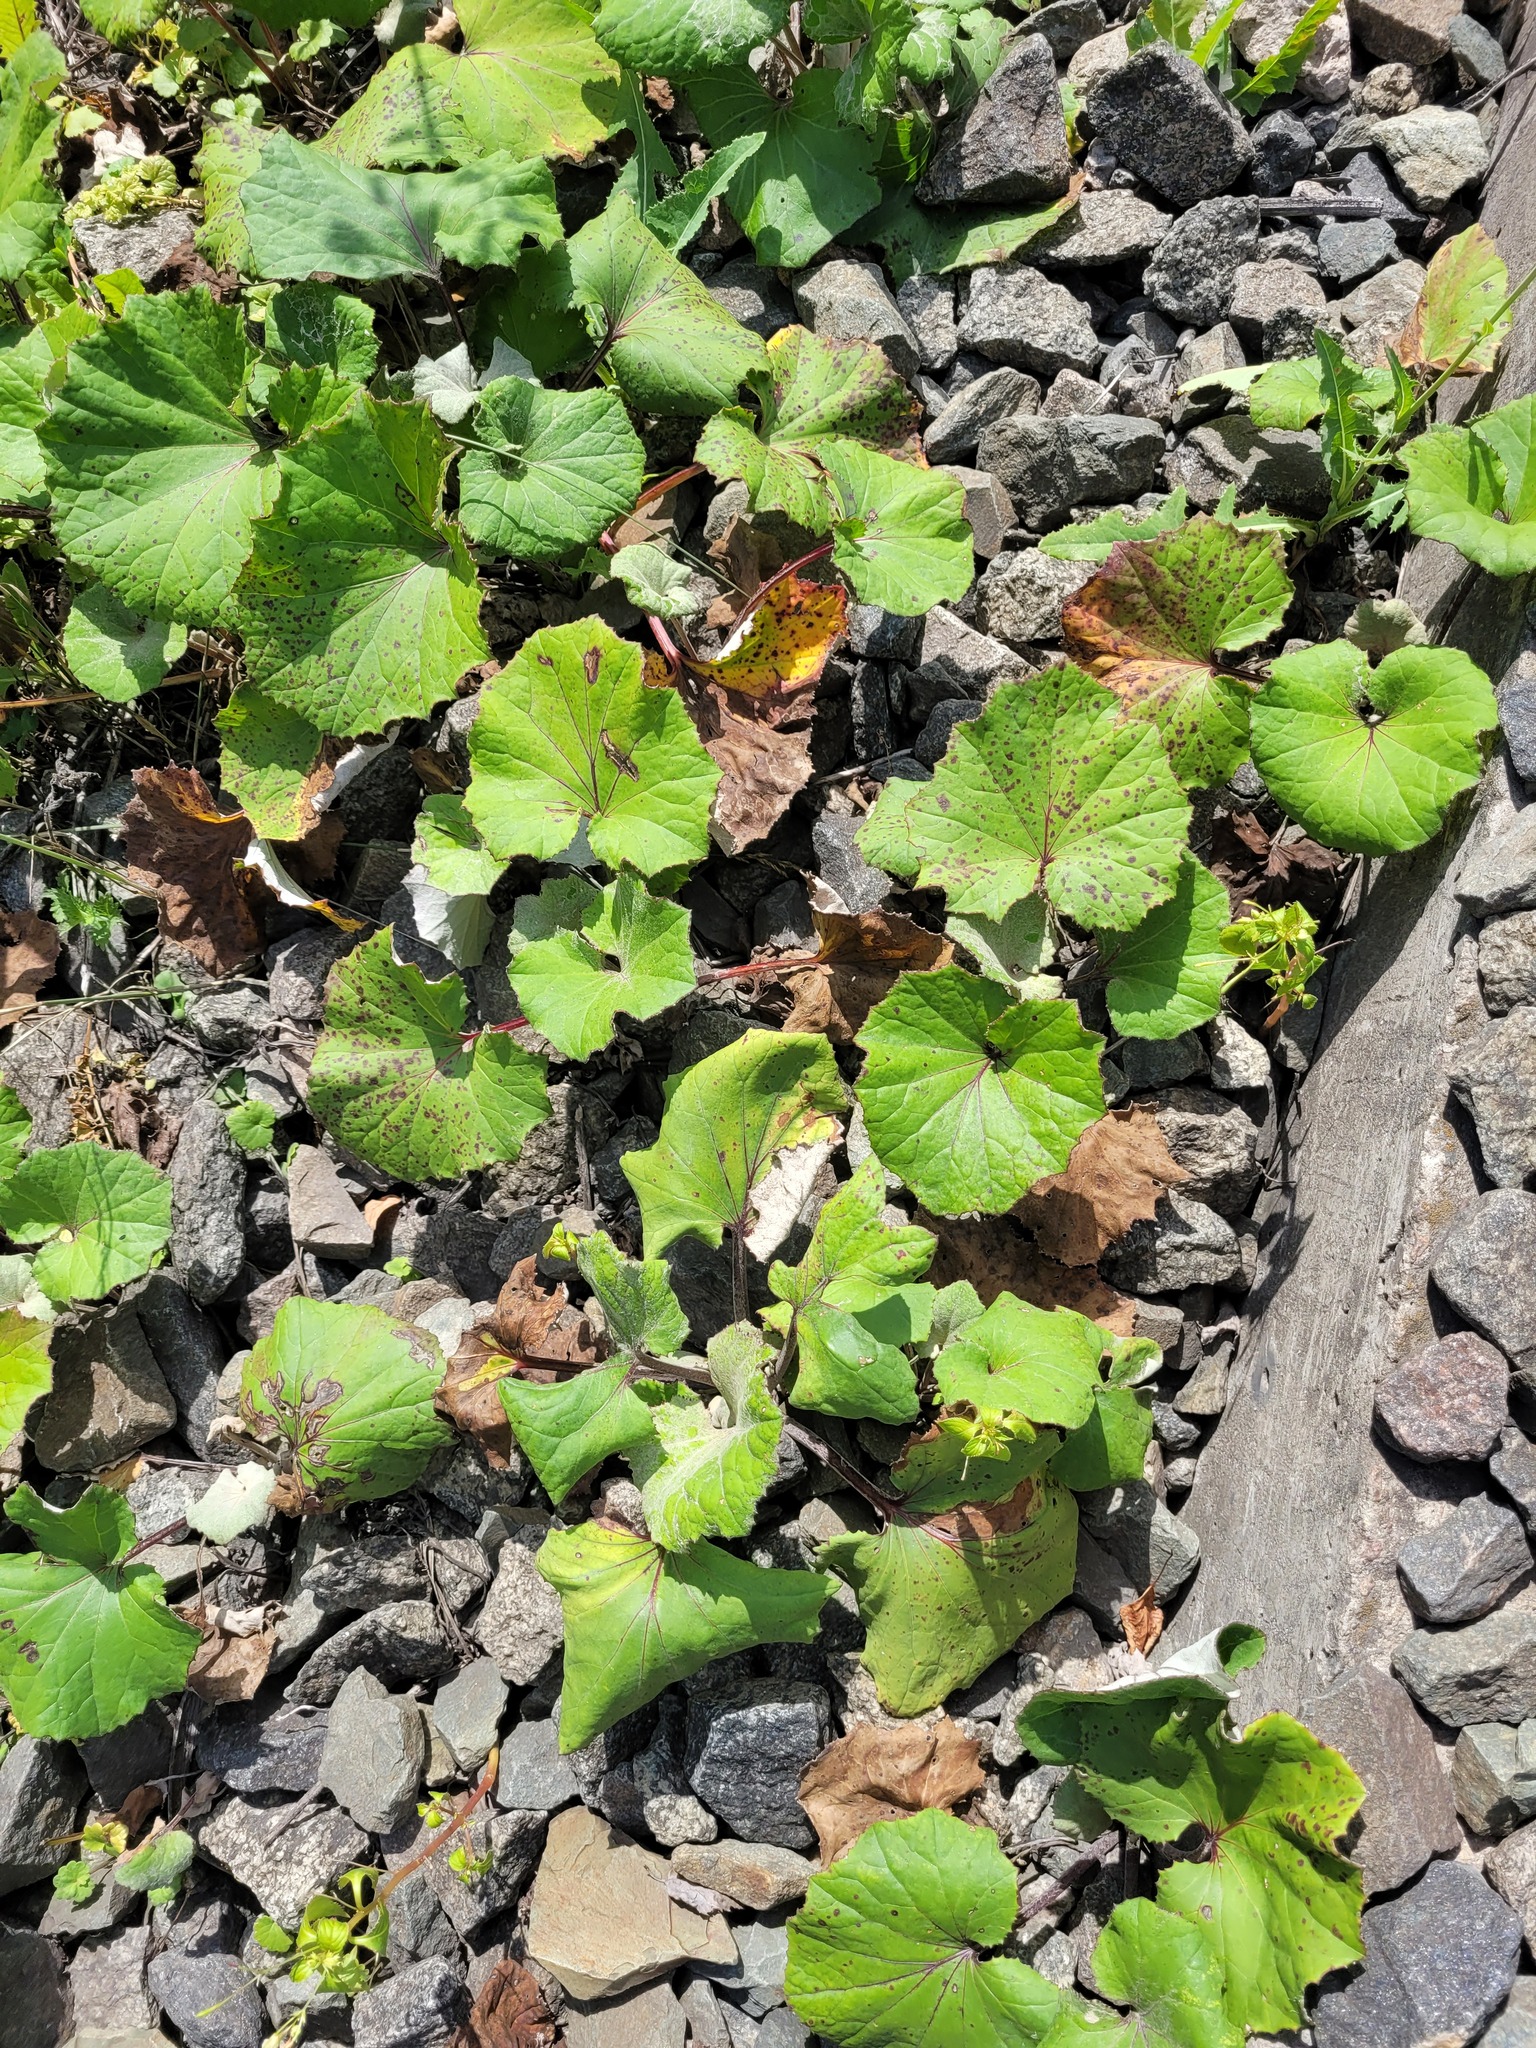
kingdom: Plantae
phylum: Tracheophyta
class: Magnoliopsida
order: Asterales
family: Asteraceae
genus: Tussilago
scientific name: Tussilago farfara
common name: Coltsfoot
